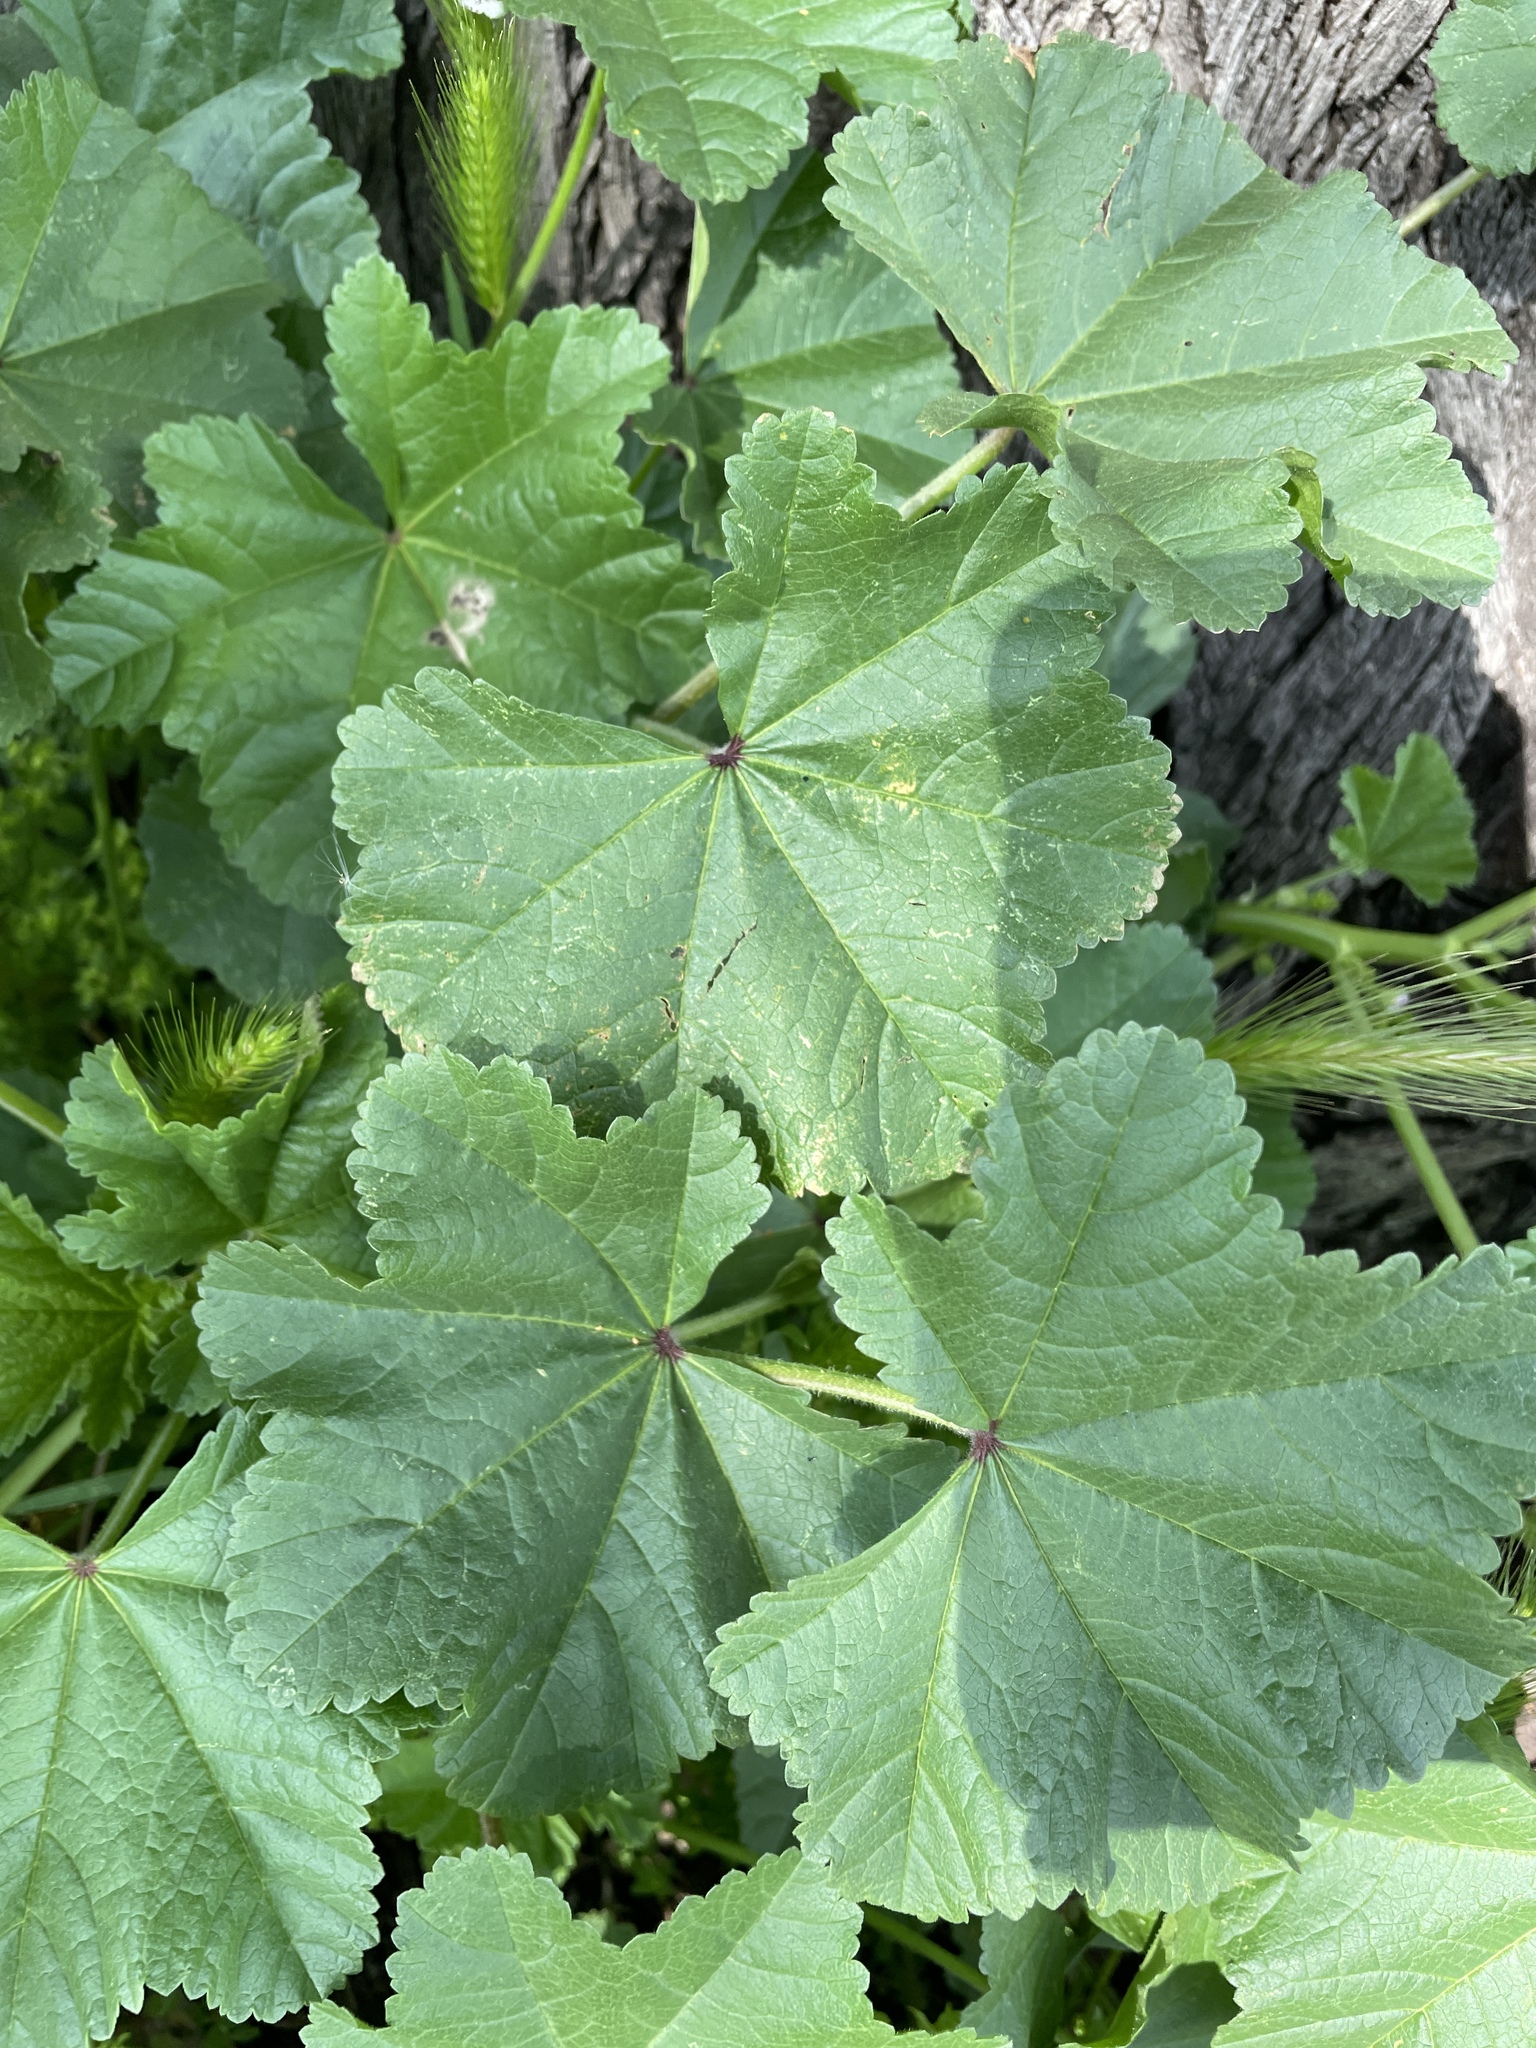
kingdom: Plantae
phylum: Tracheophyta
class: Magnoliopsida
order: Malvales
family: Malvaceae
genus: Malva
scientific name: Malva
